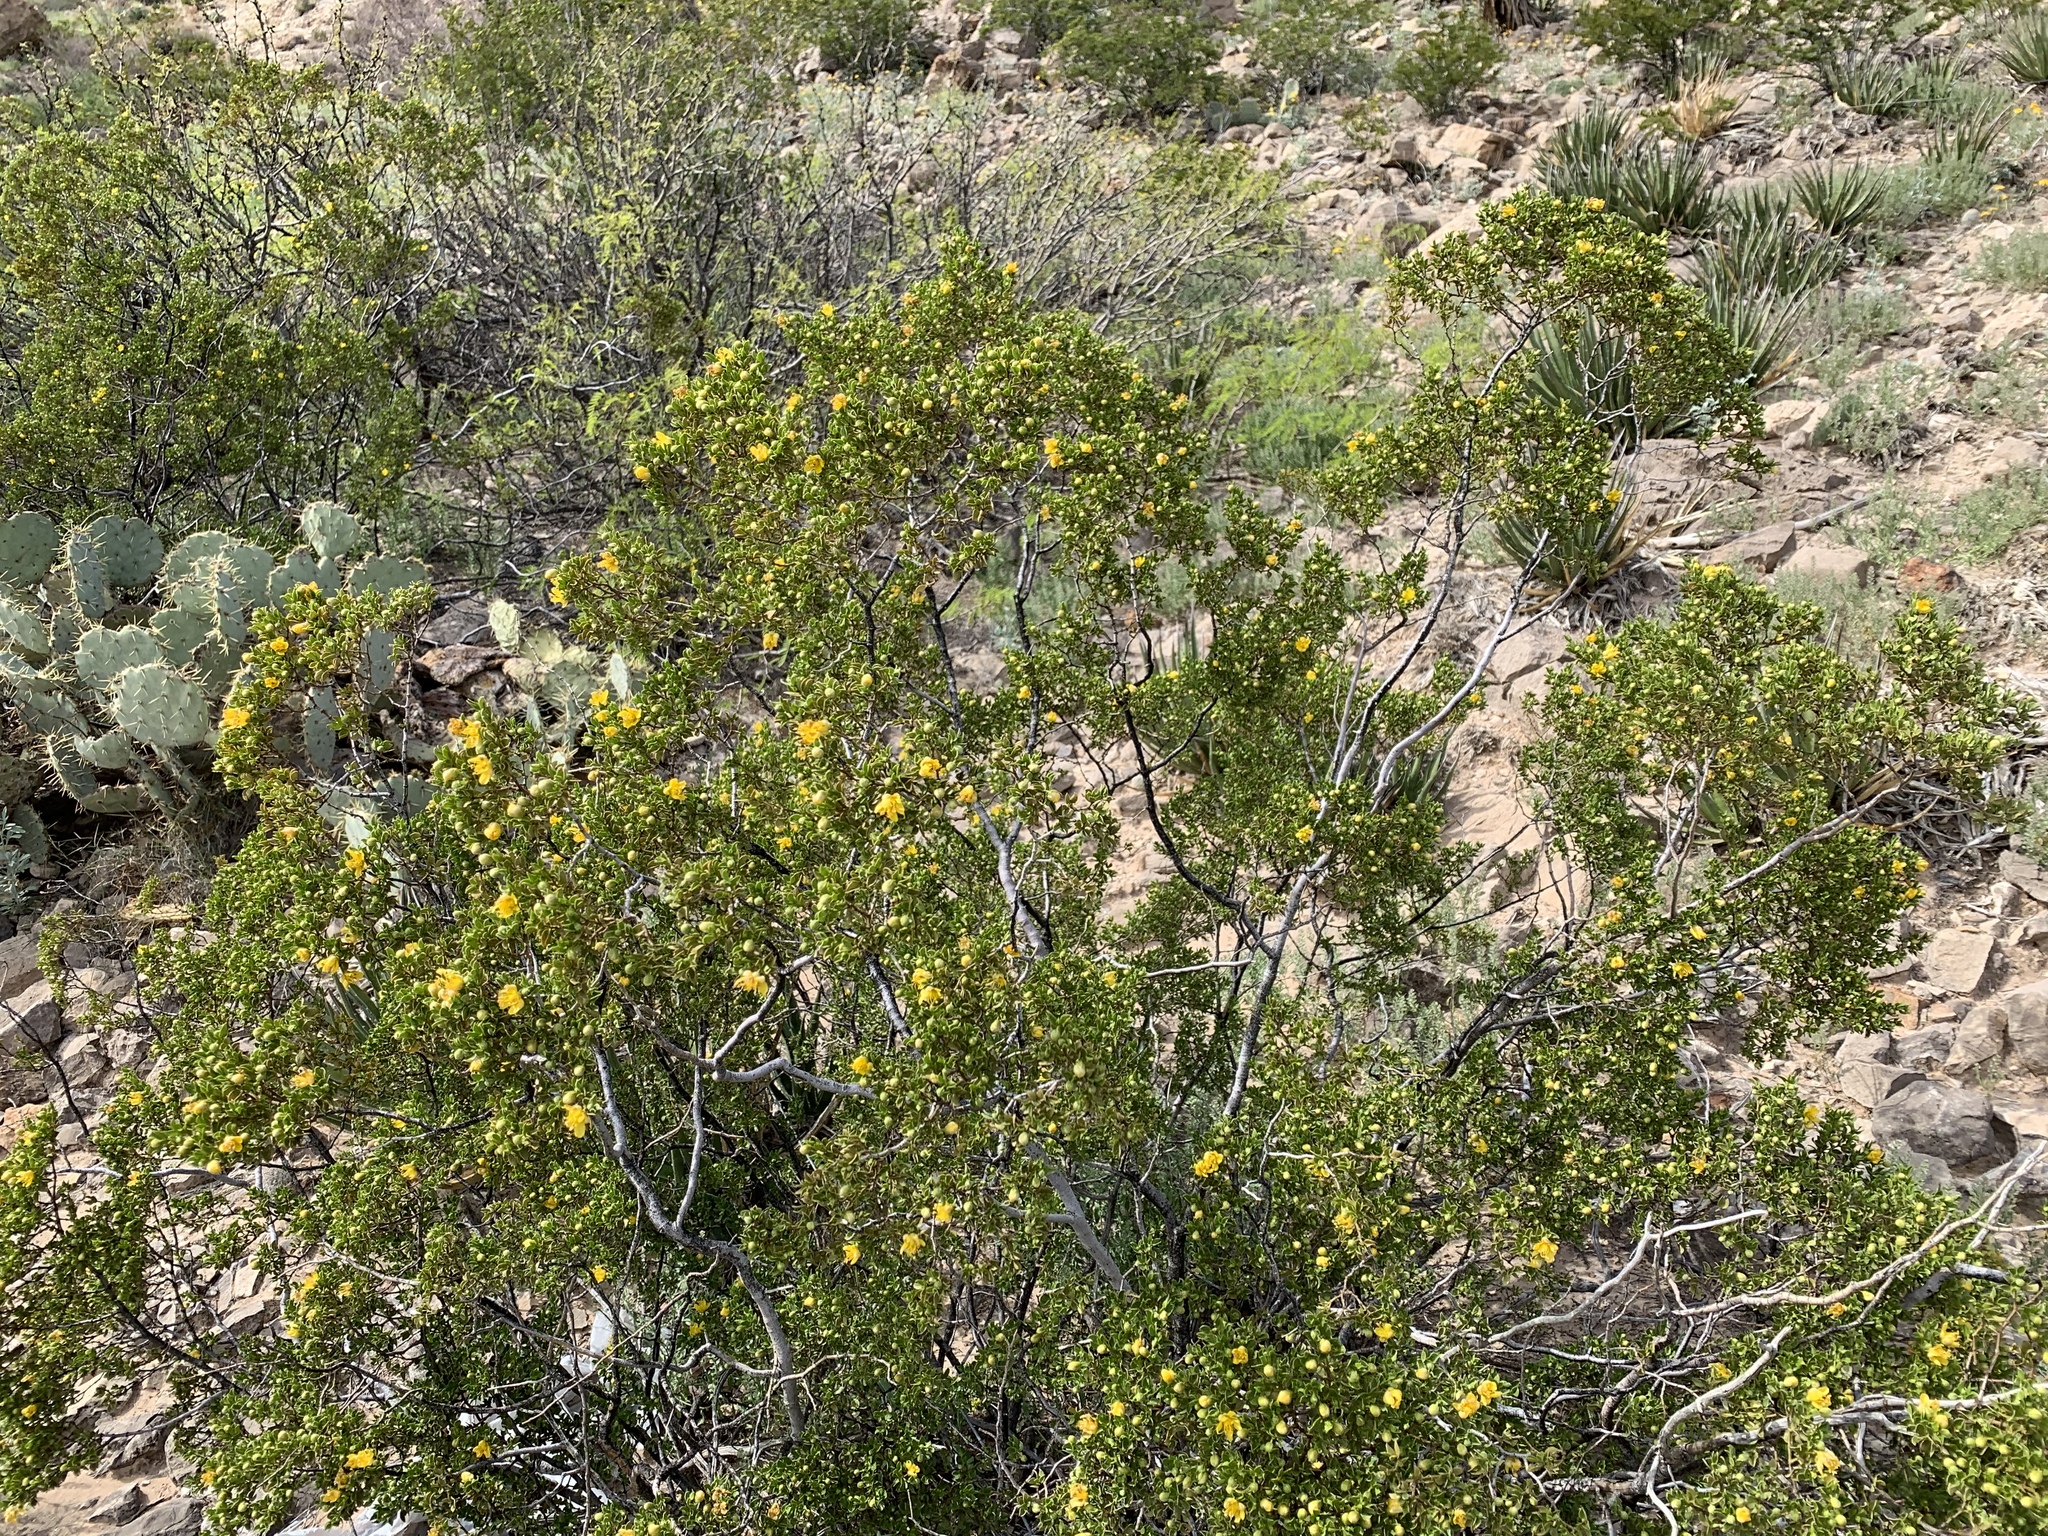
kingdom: Plantae
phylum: Tracheophyta
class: Magnoliopsida
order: Zygophyllales
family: Zygophyllaceae
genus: Larrea
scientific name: Larrea tridentata
